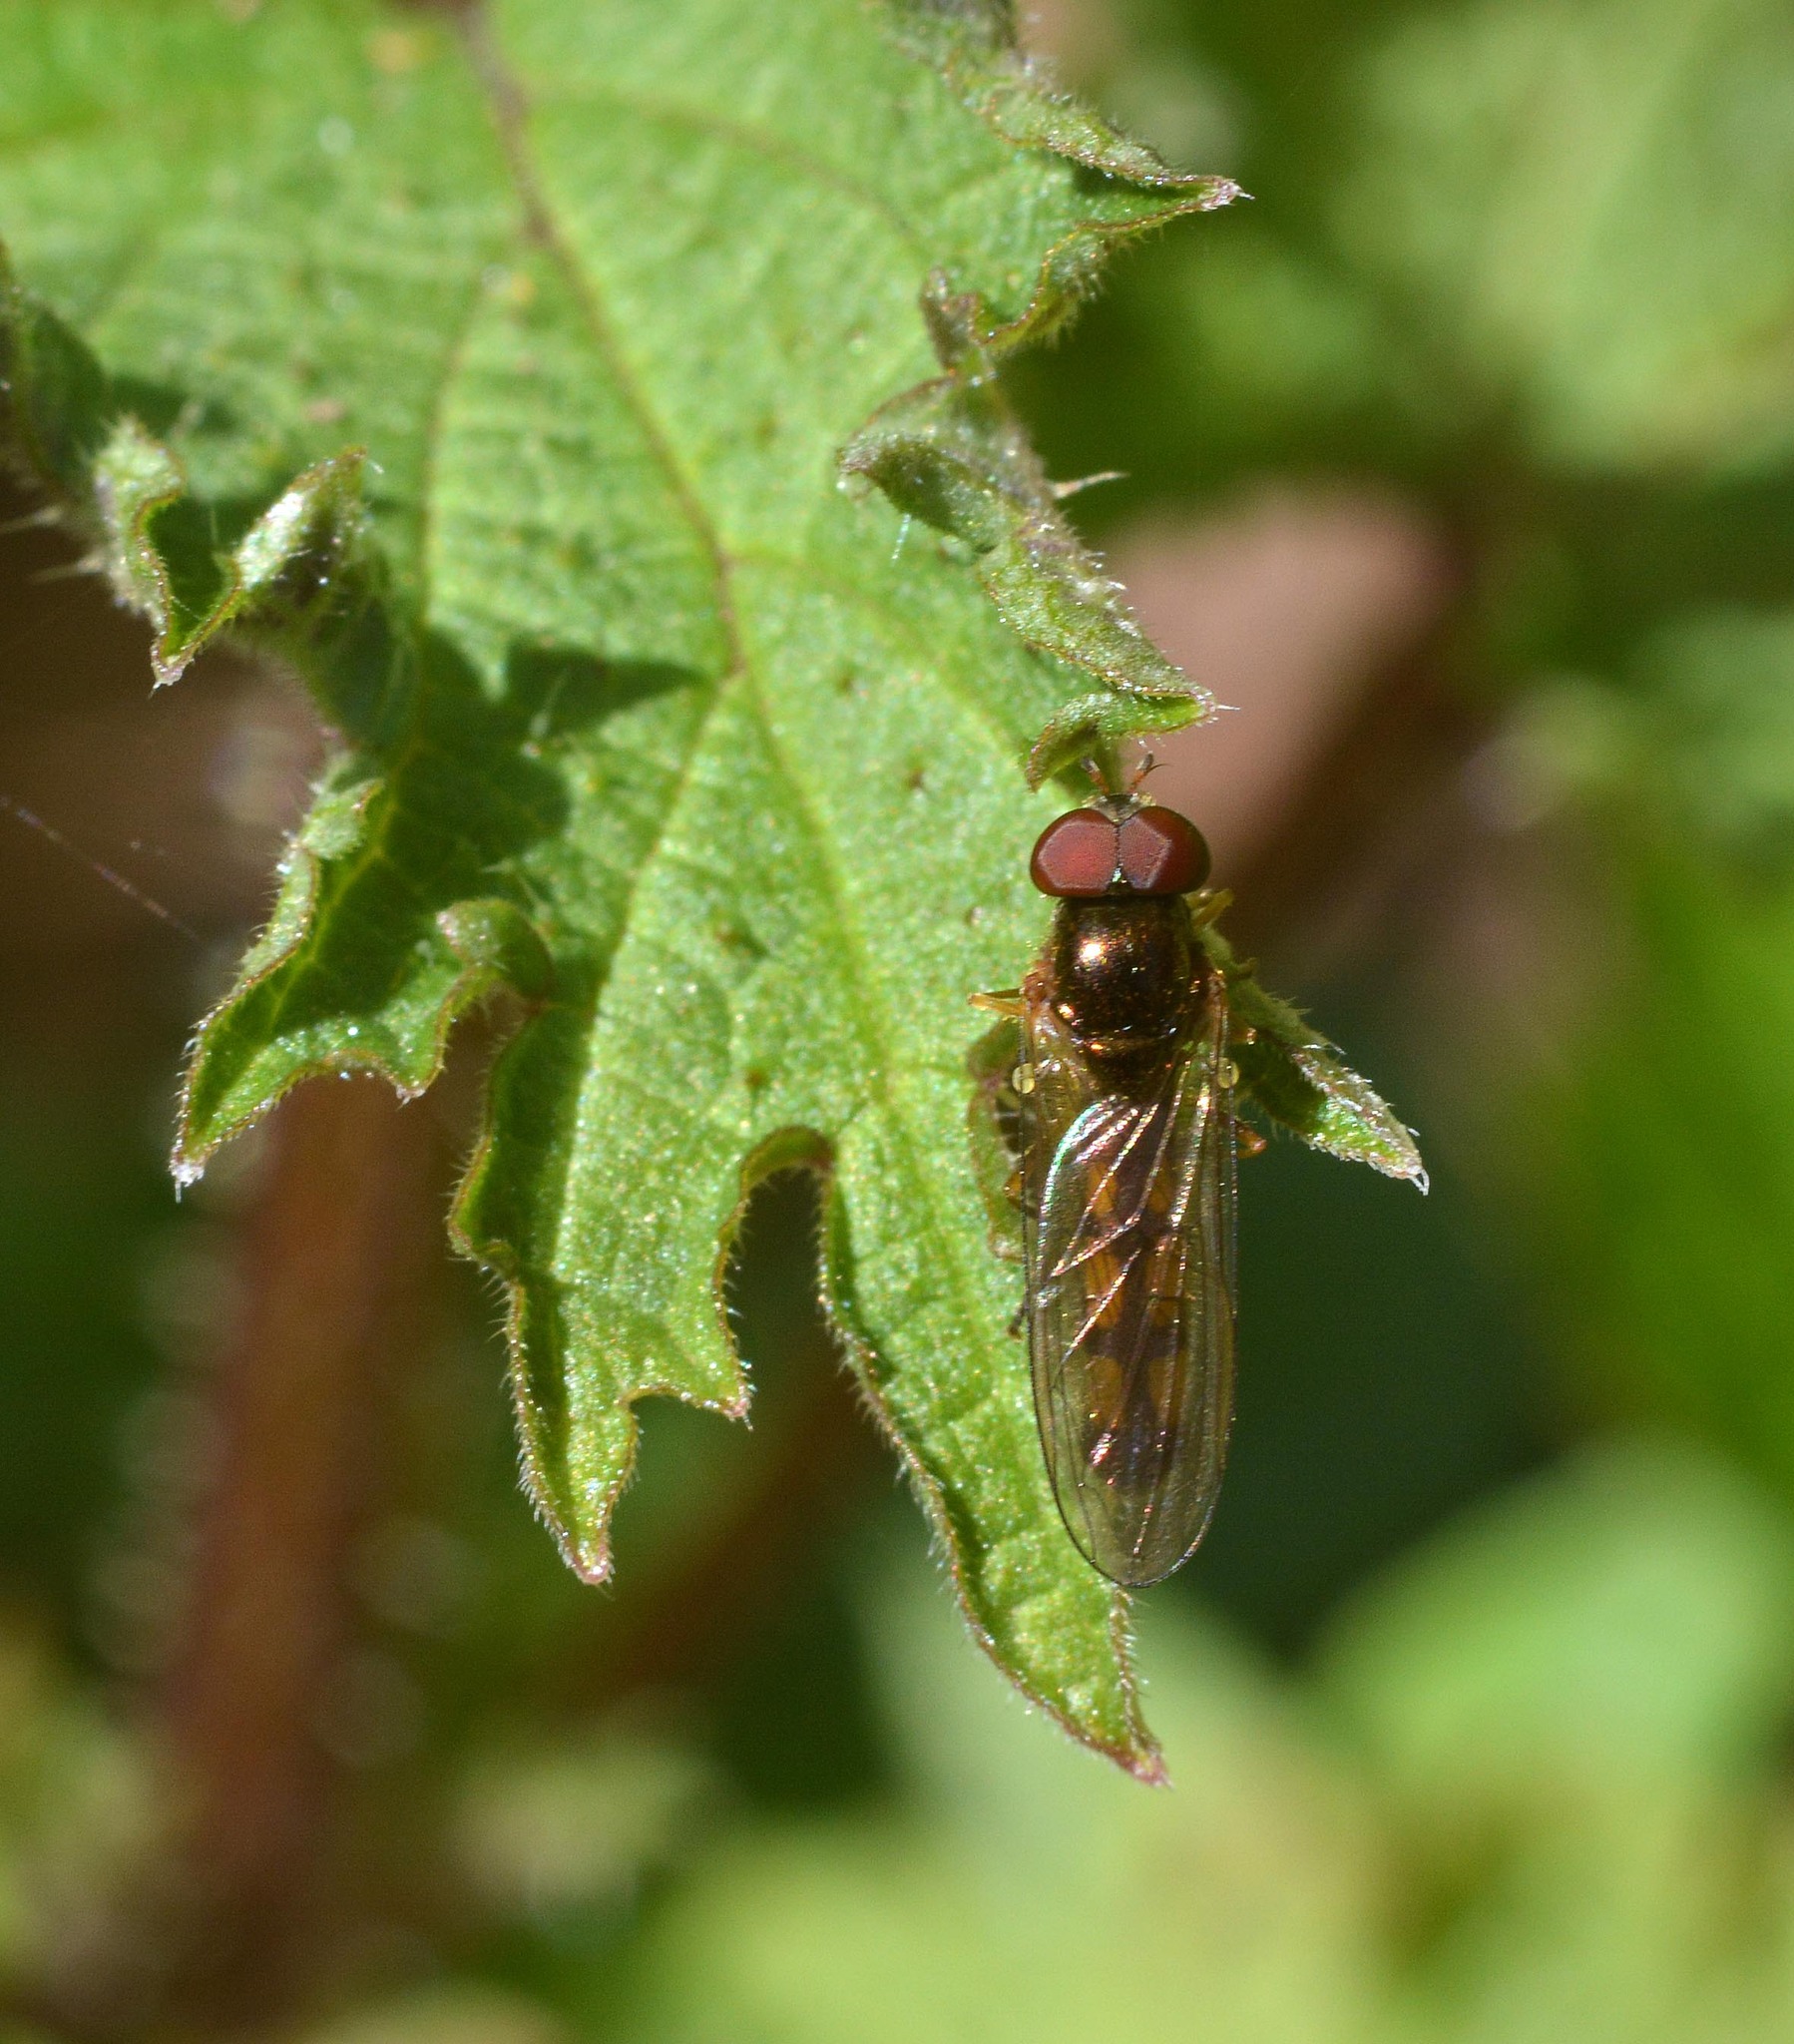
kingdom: Animalia
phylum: Arthropoda
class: Insecta
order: Diptera
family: Syrphidae
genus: Melanostoma
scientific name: Melanostoma scalare
